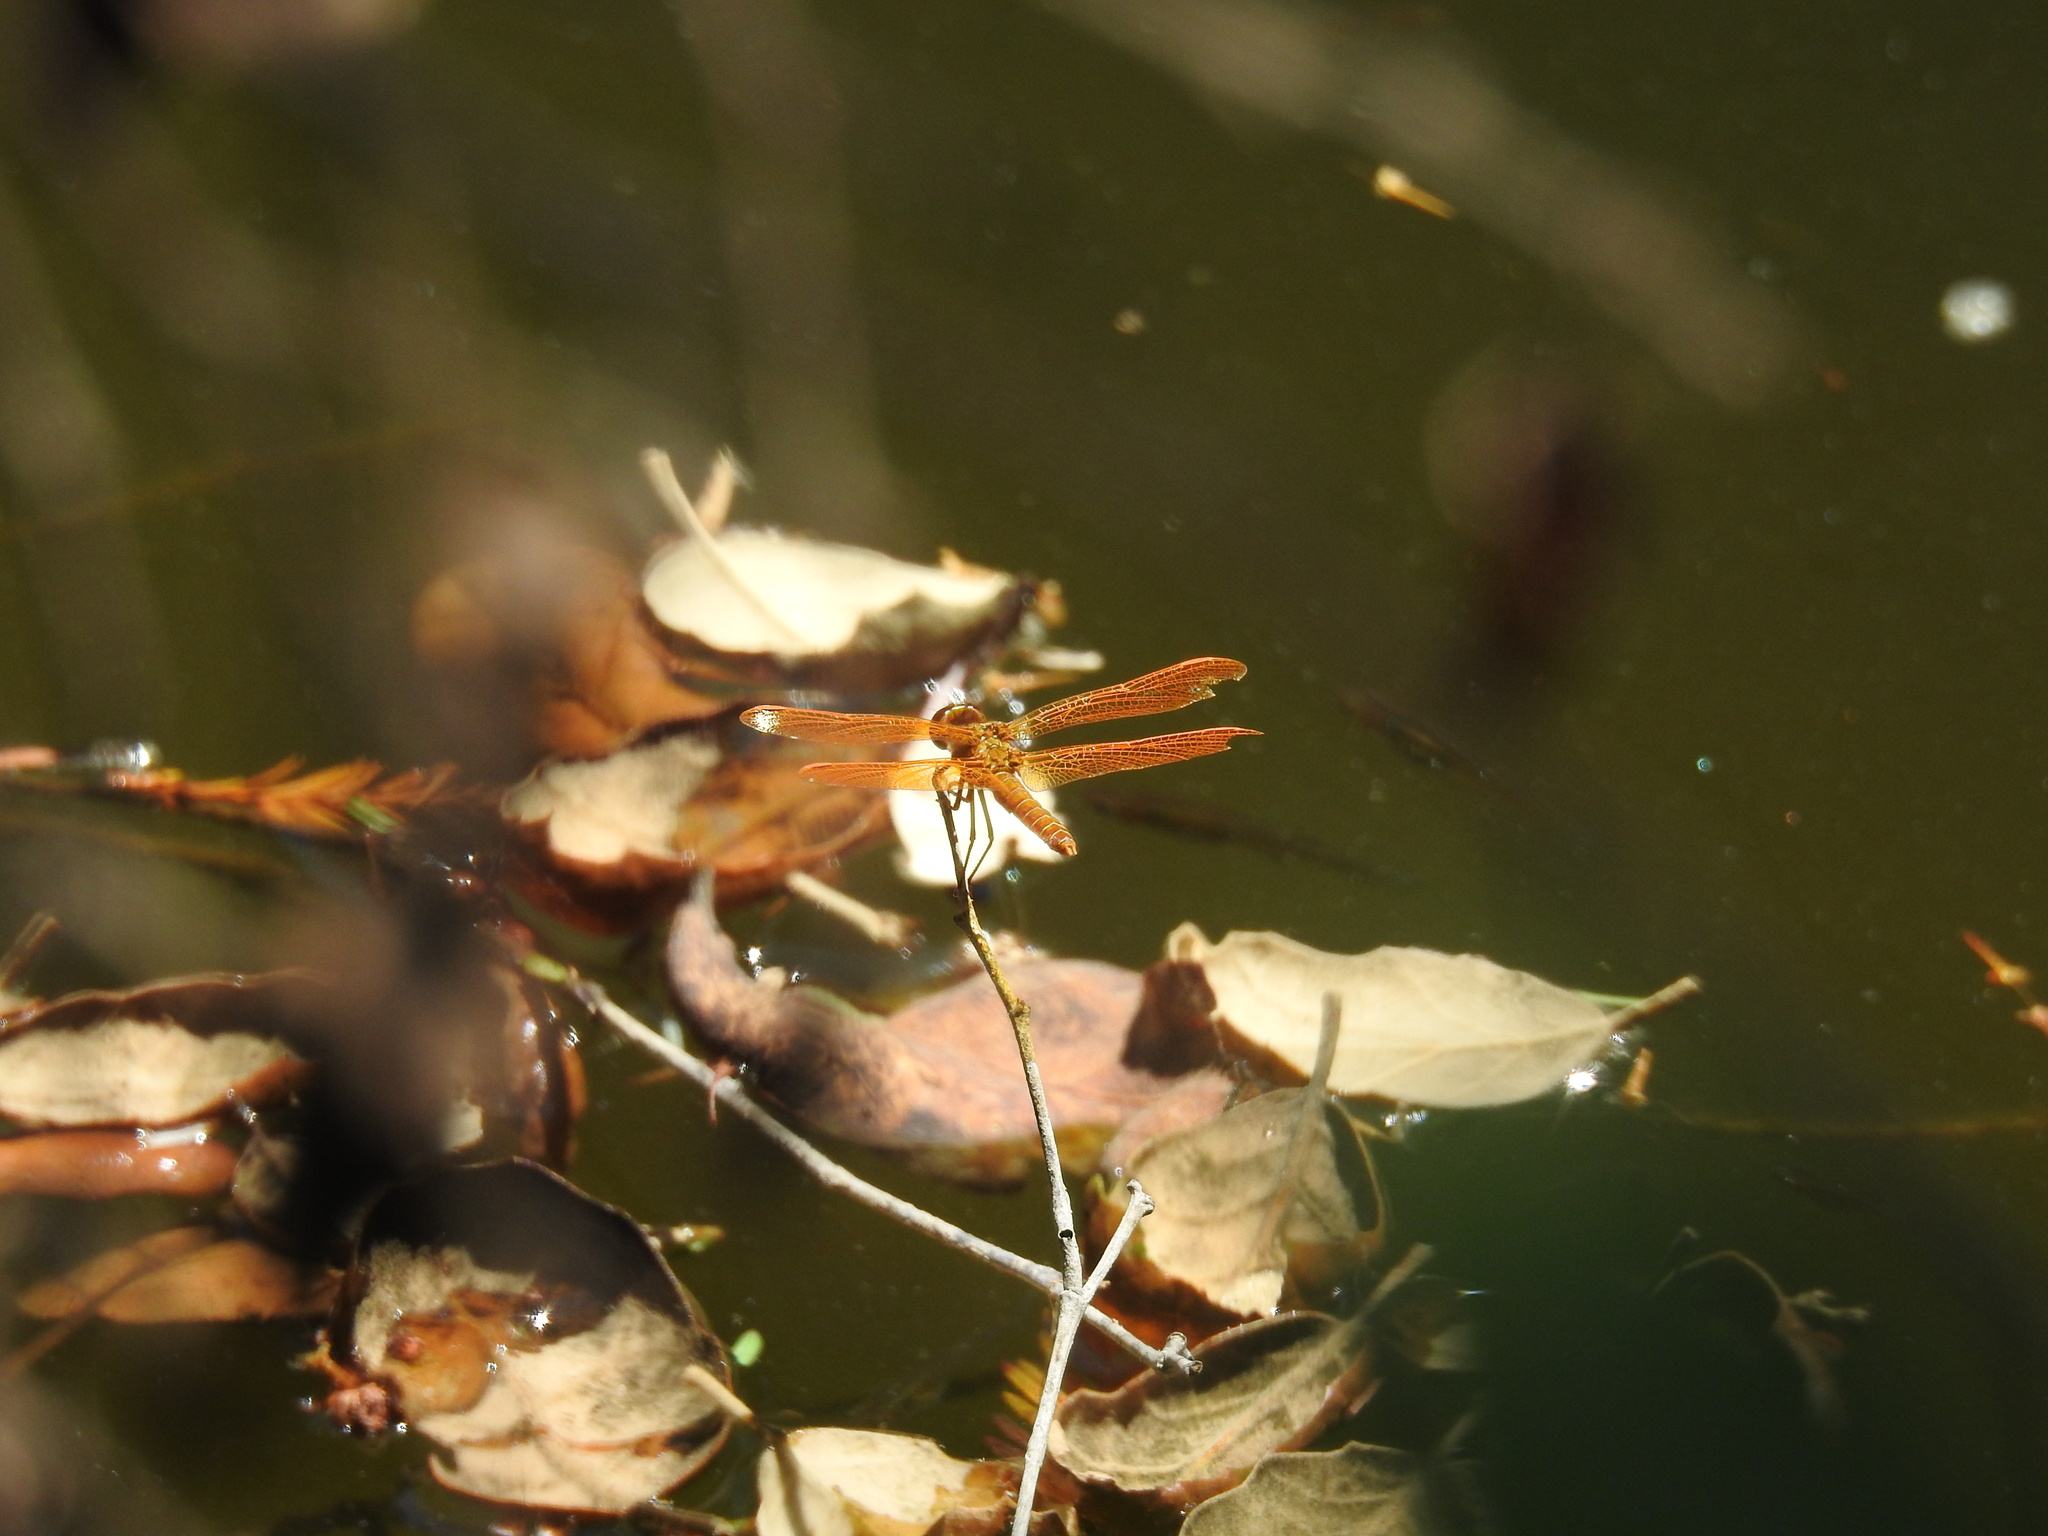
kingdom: Animalia
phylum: Arthropoda
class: Insecta
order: Odonata
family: Libellulidae
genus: Perithemis
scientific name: Perithemis intensa
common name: Mexican amberwing
